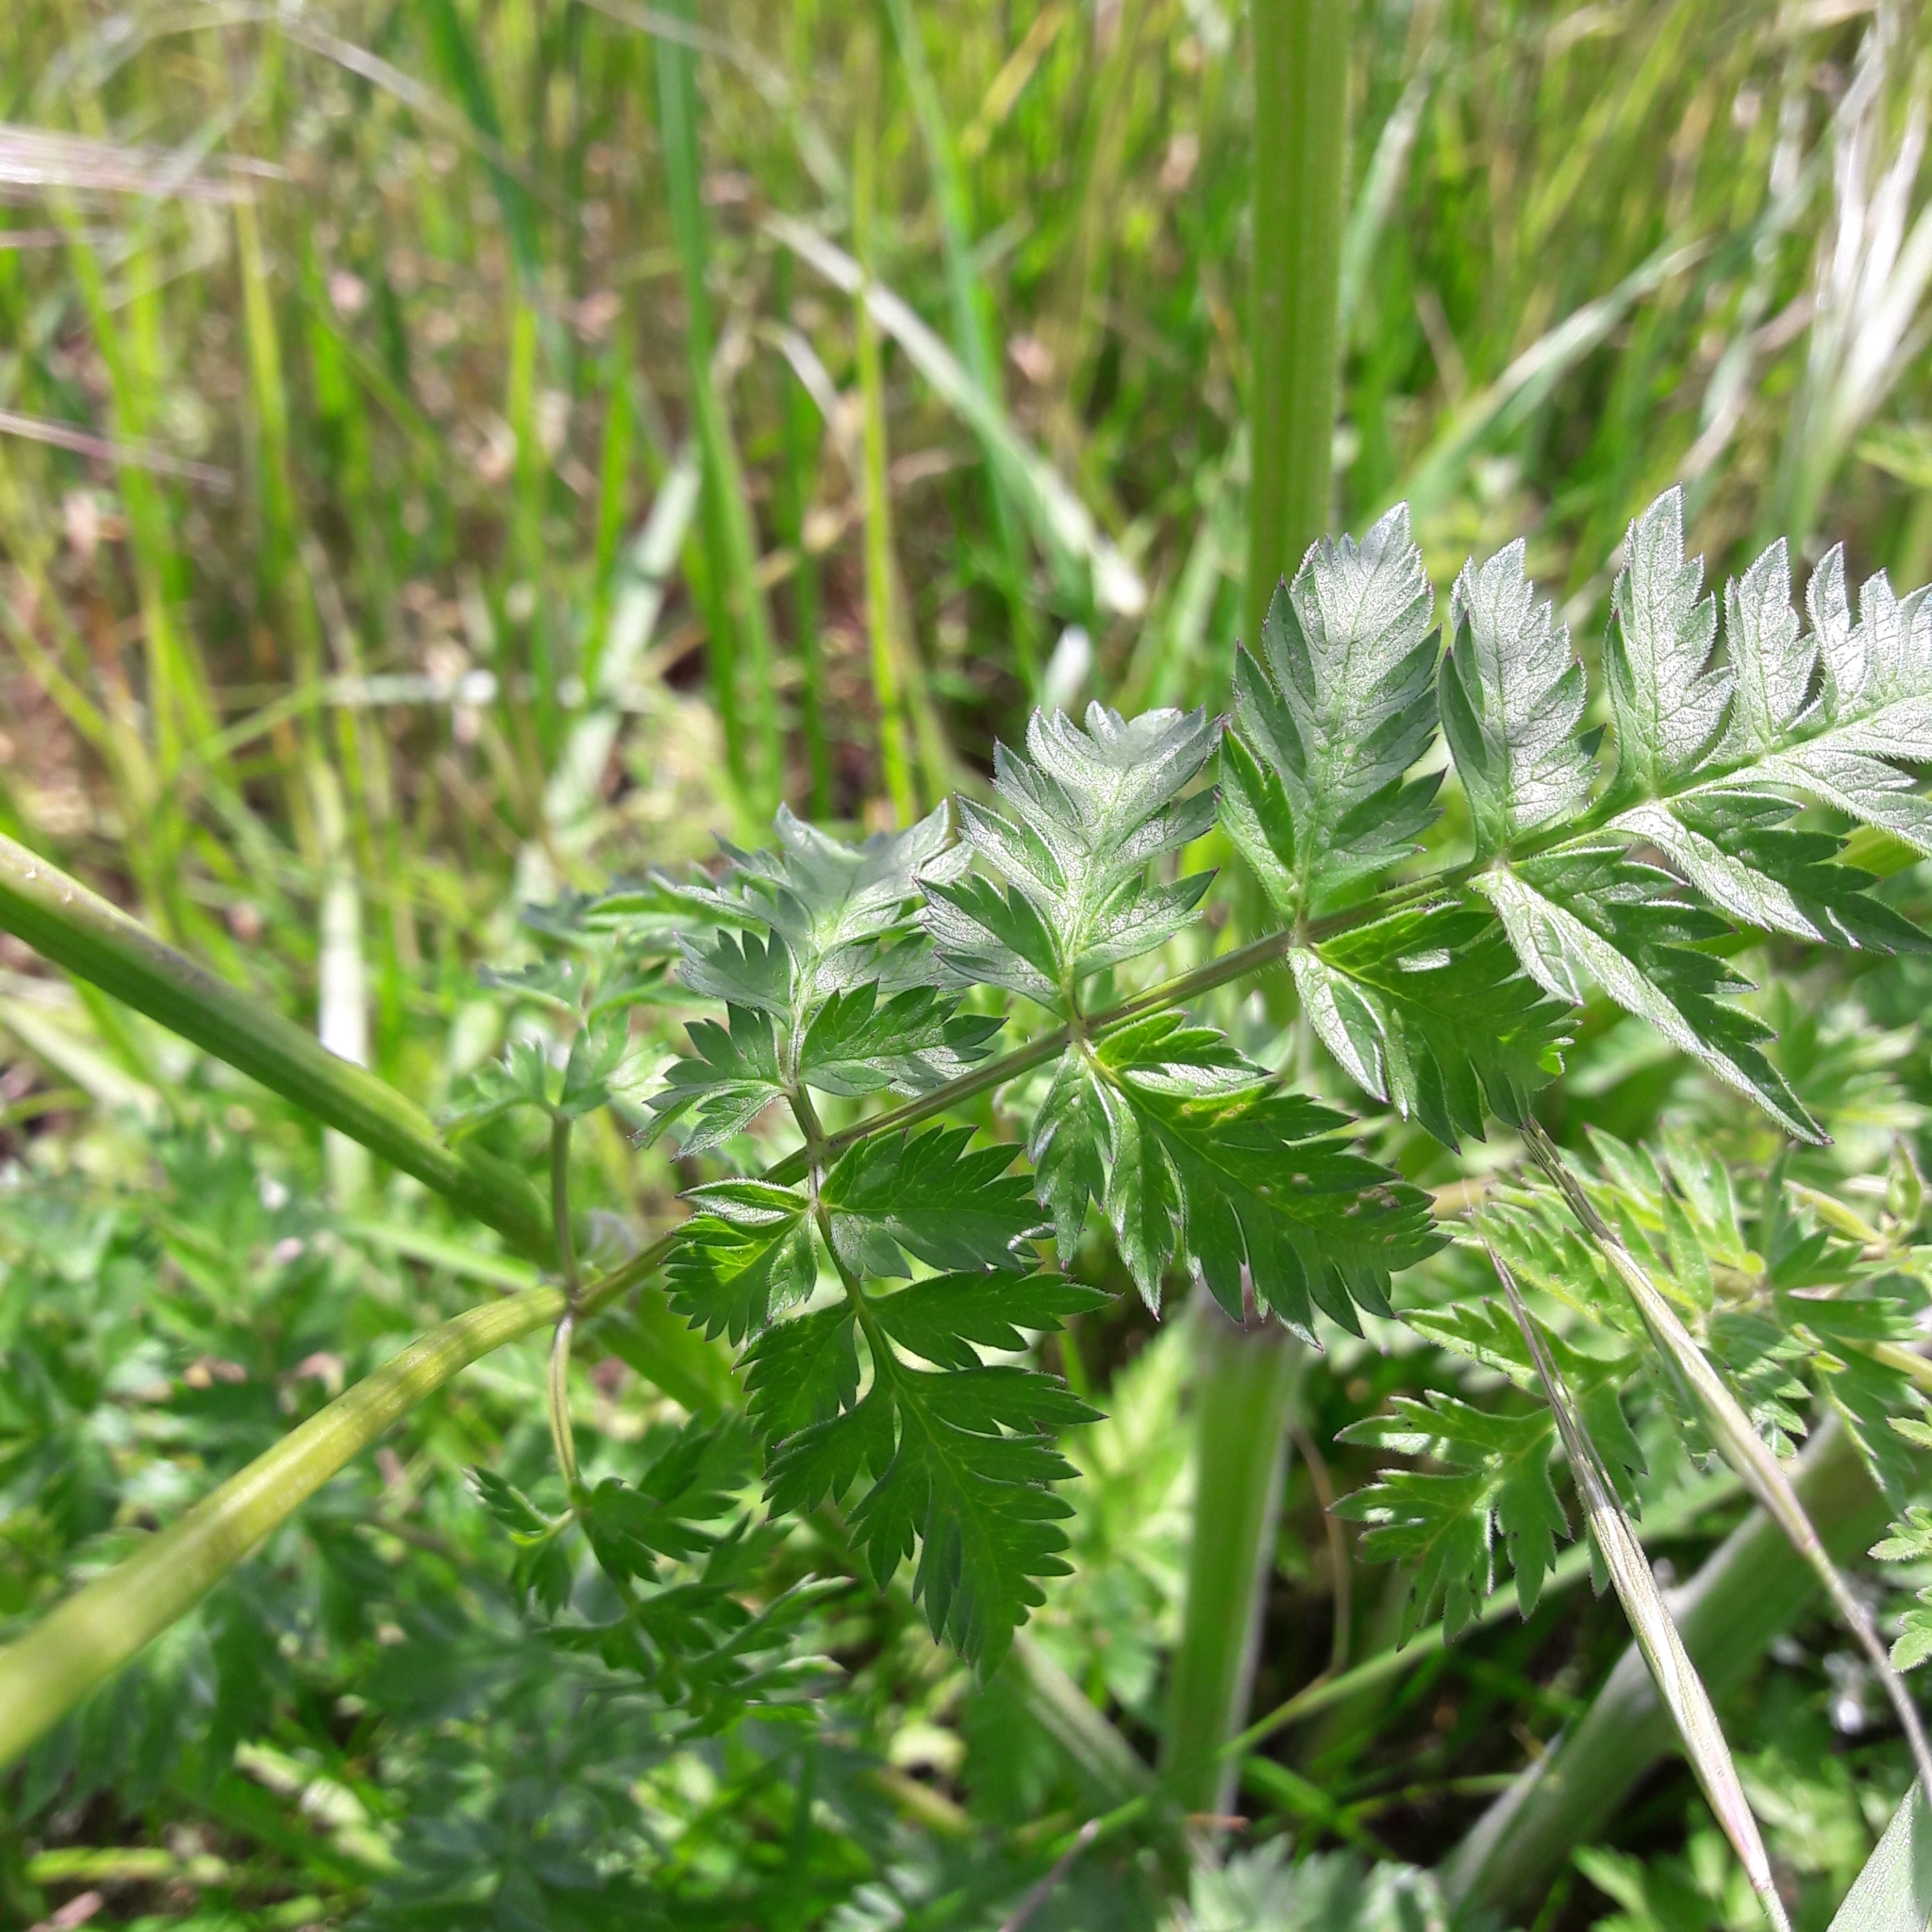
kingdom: Plantae
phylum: Tracheophyta
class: Magnoliopsida
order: Apiales
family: Apiaceae
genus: Anthriscus
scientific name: Anthriscus sylvestris
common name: Cow parsley
